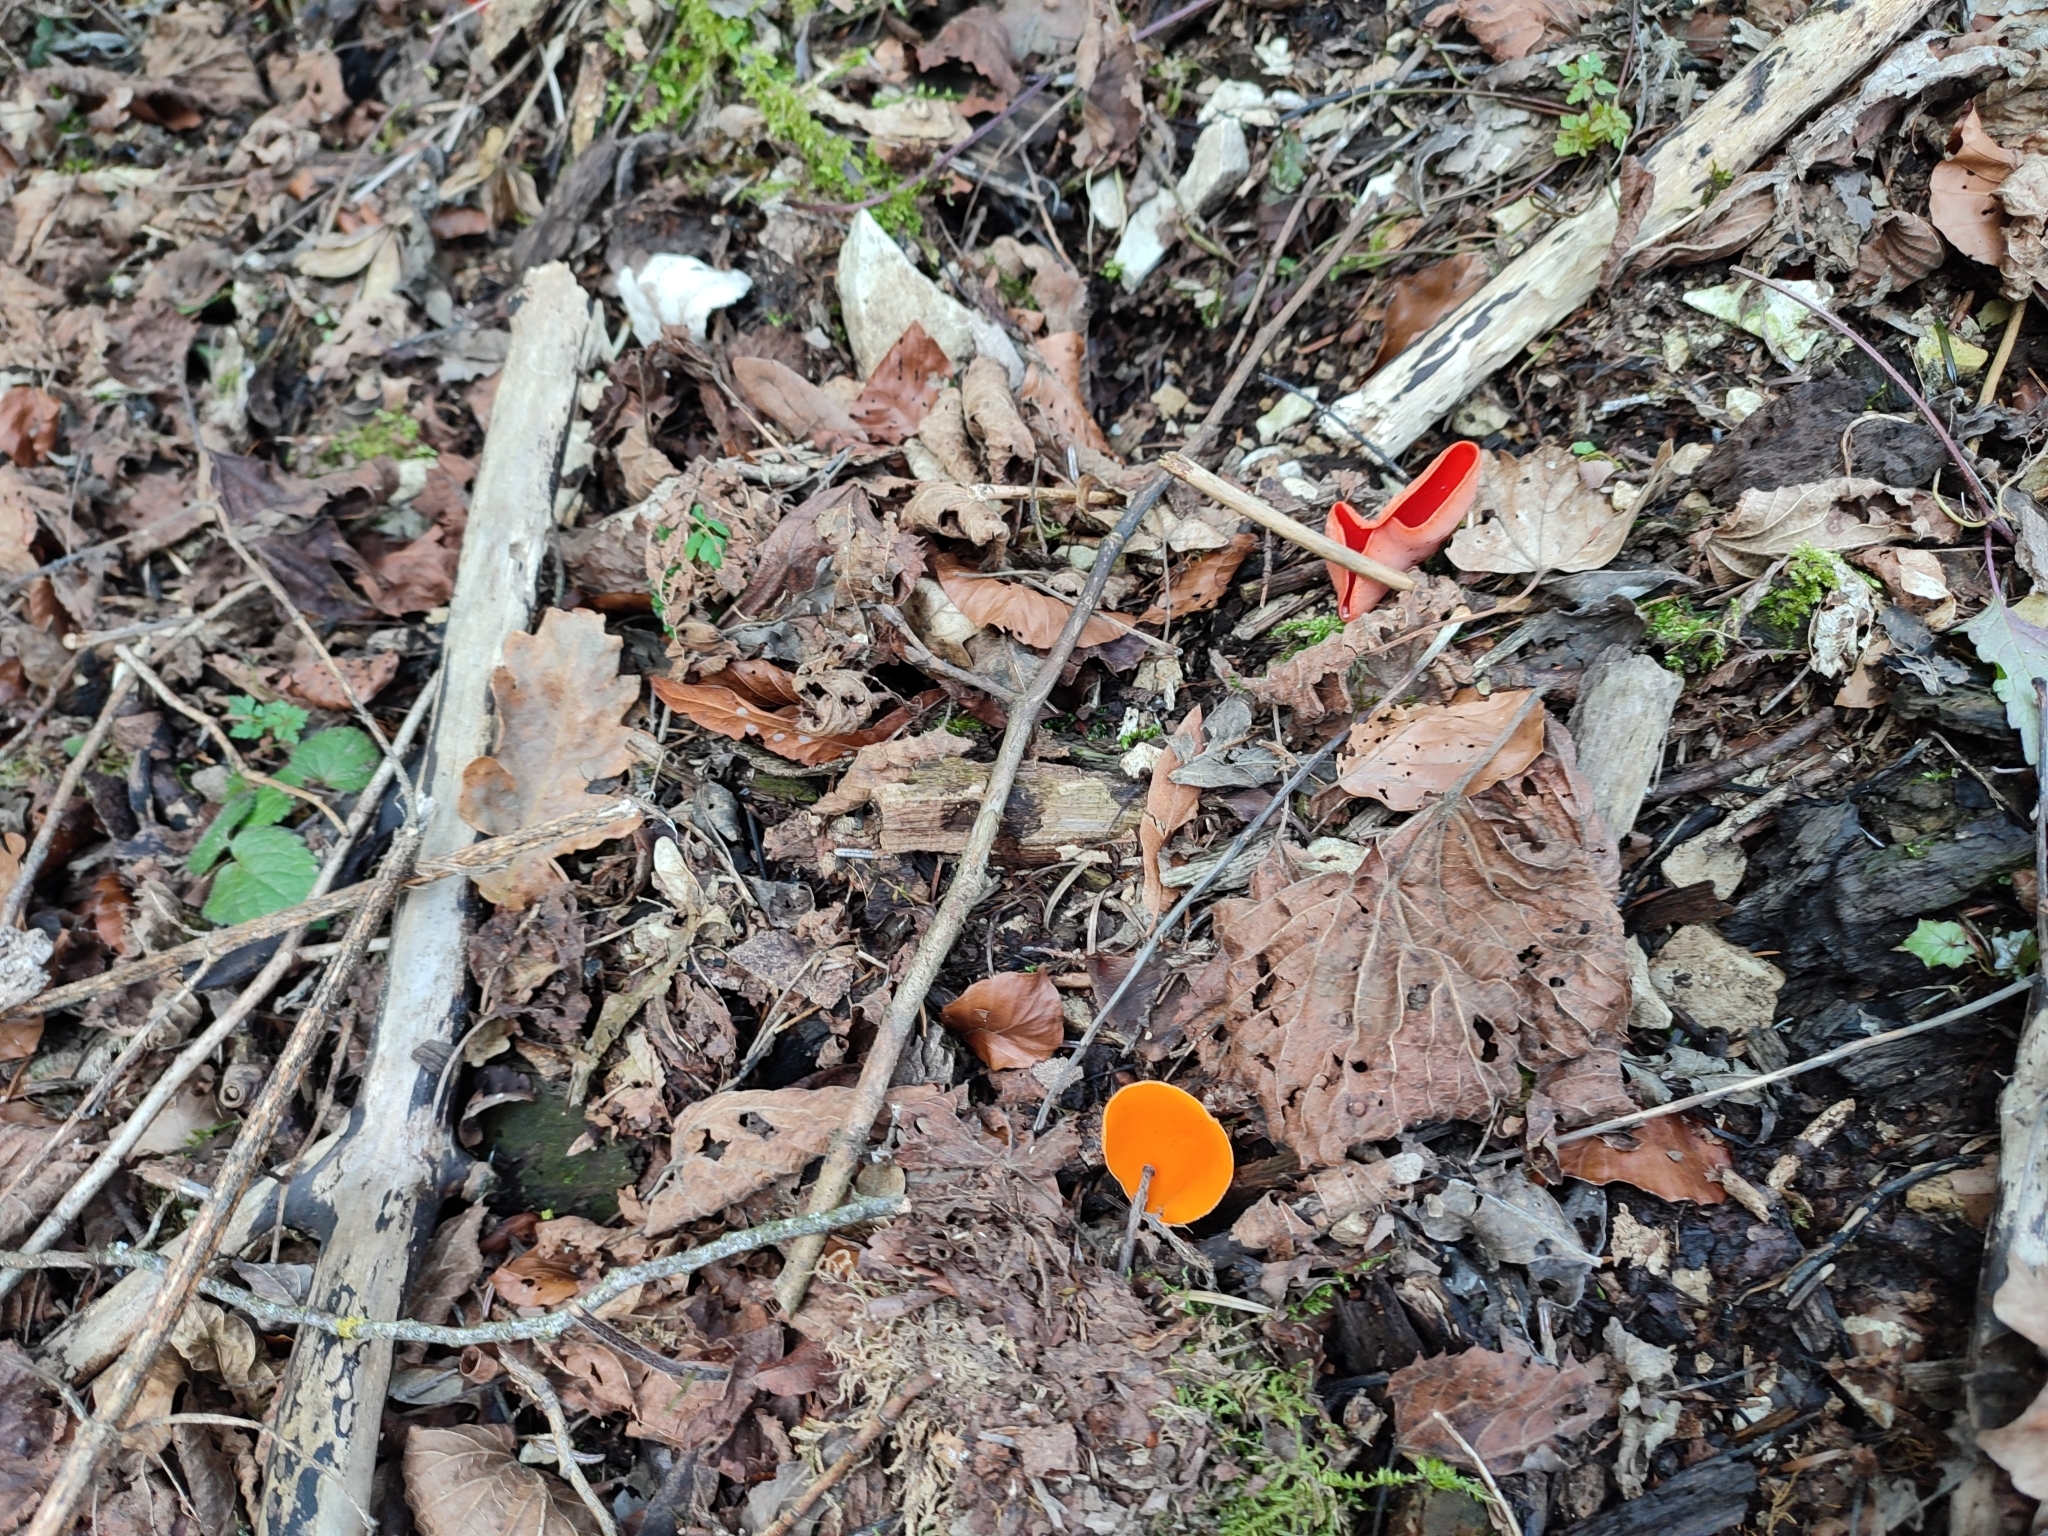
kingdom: Fungi
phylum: Ascomycota
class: Pezizomycetes
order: Pezizales
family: Sarcoscyphaceae
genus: Sarcoscypha
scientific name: Sarcoscypha
